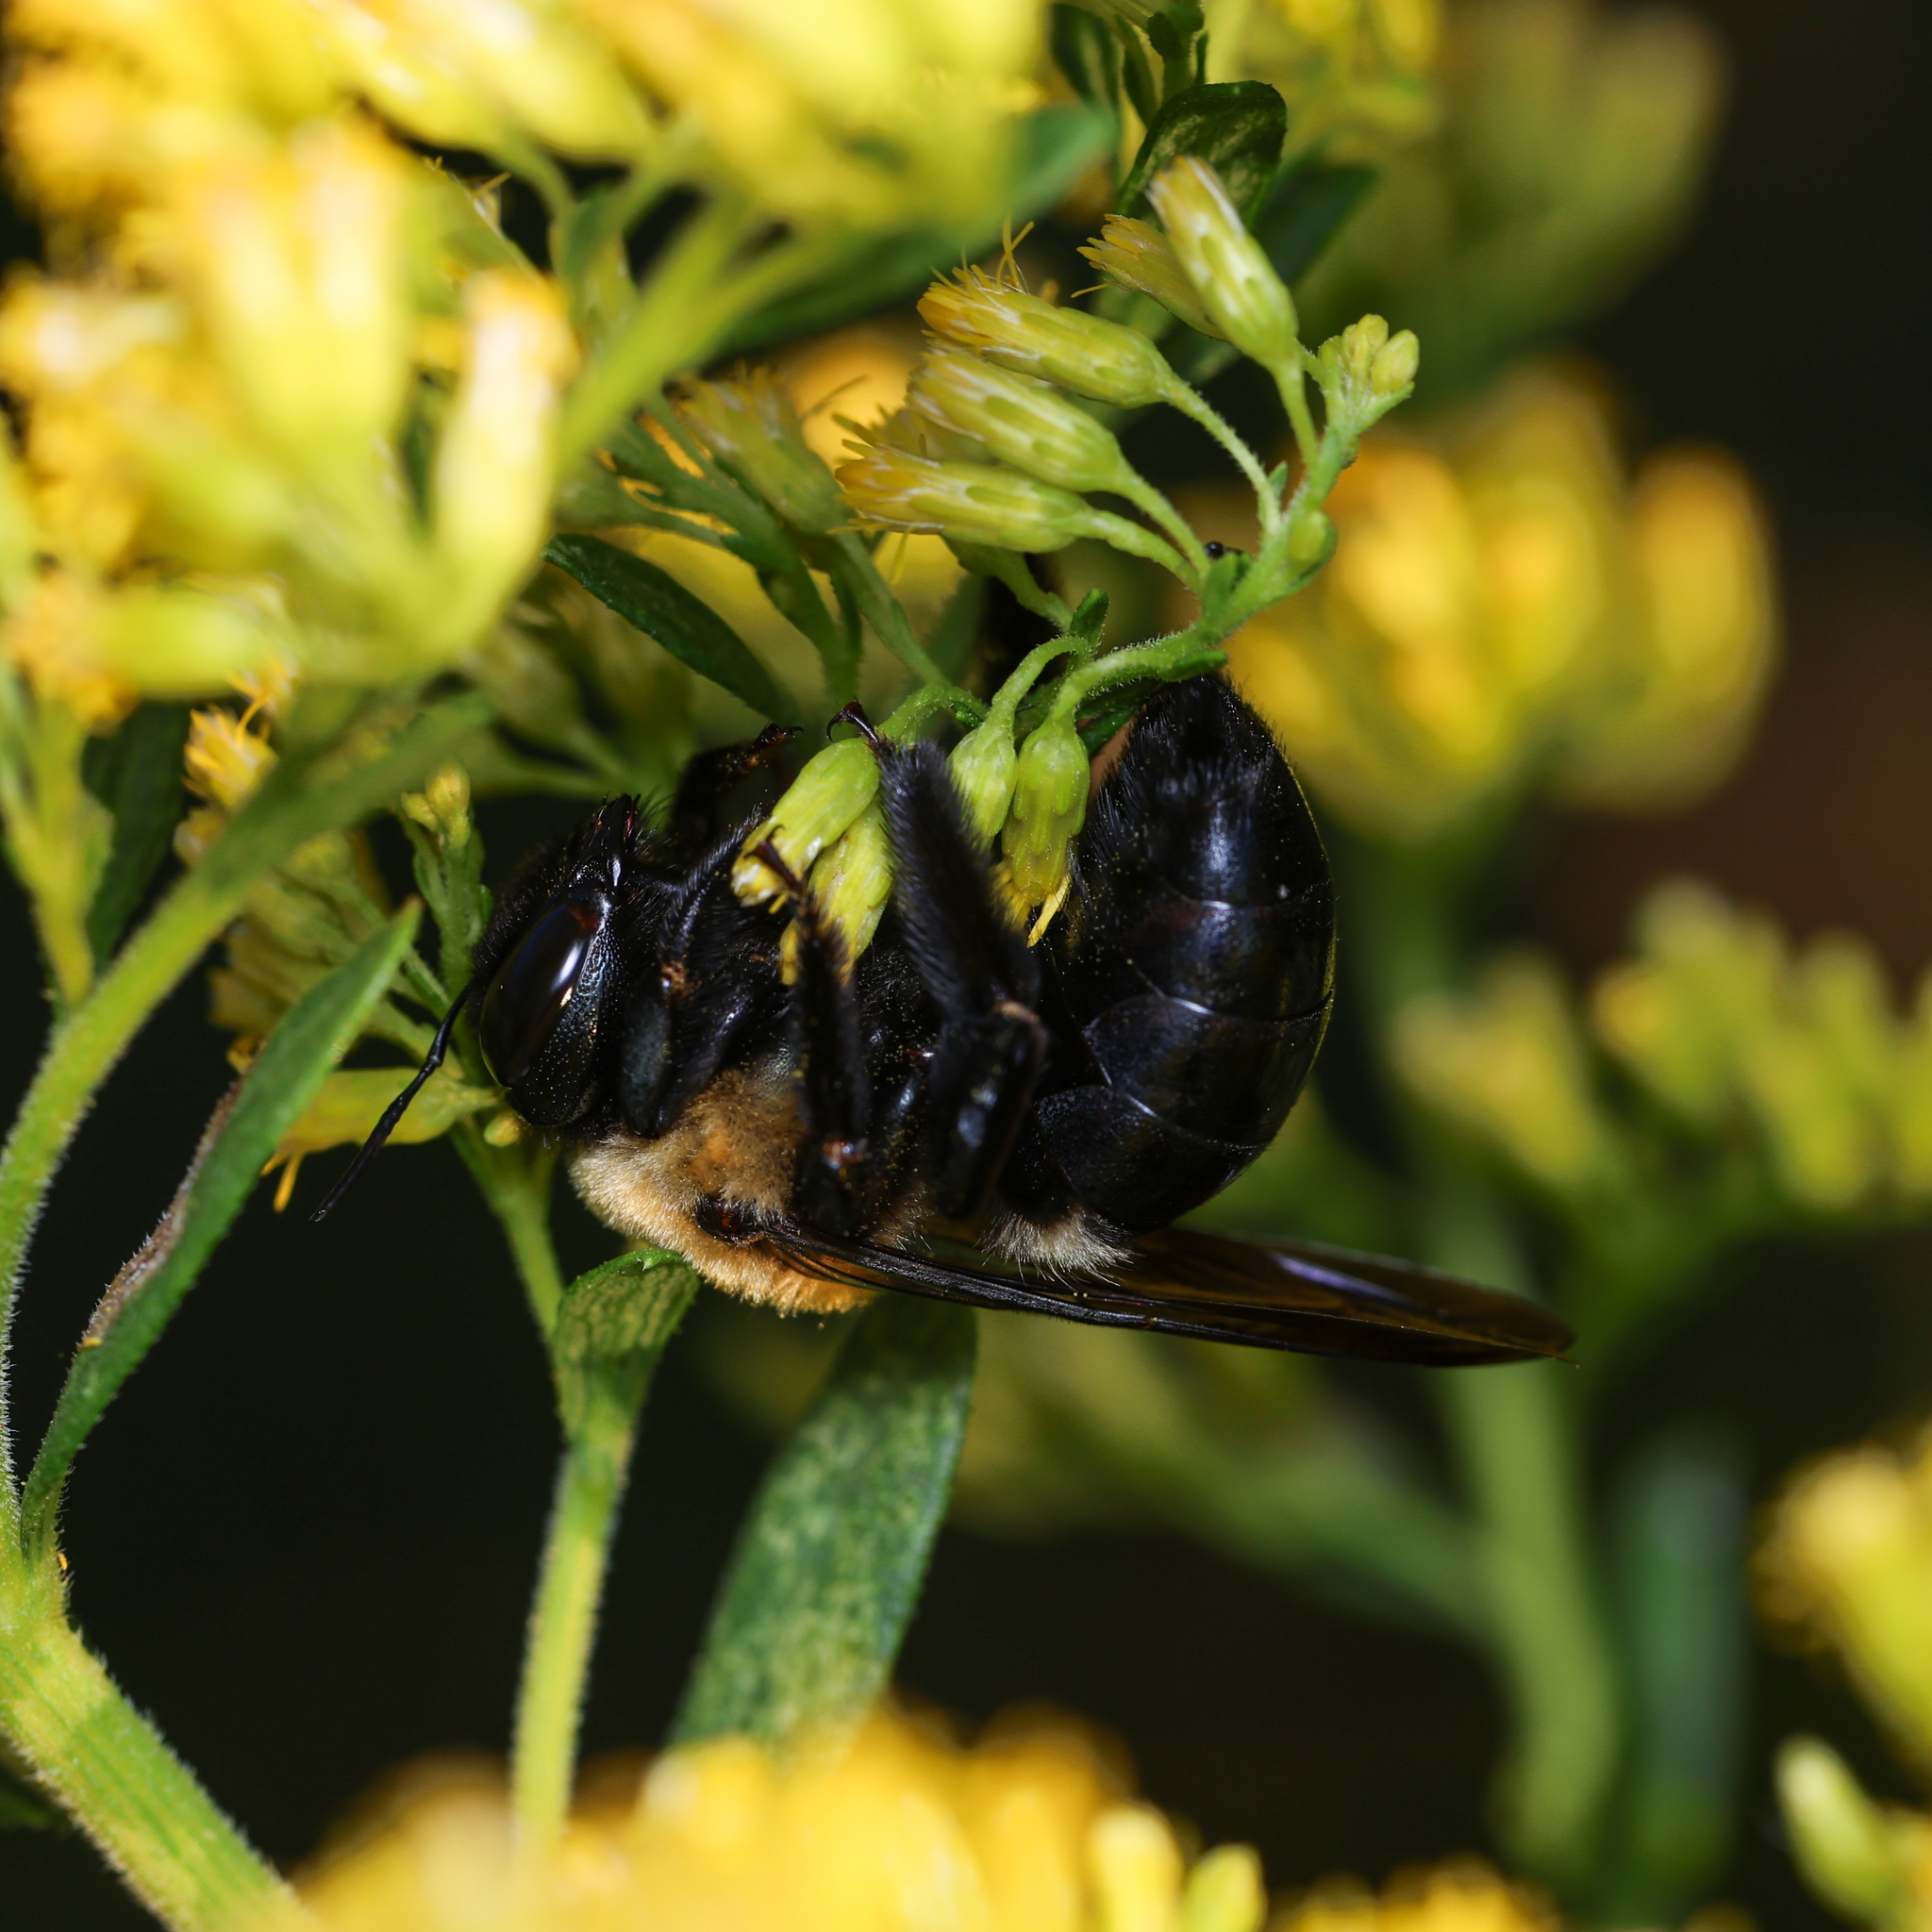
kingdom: Animalia
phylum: Arthropoda
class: Insecta
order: Hymenoptera
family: Apidae
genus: Xylocopa
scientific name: Xylocopa virginica
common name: Carpenter bee
